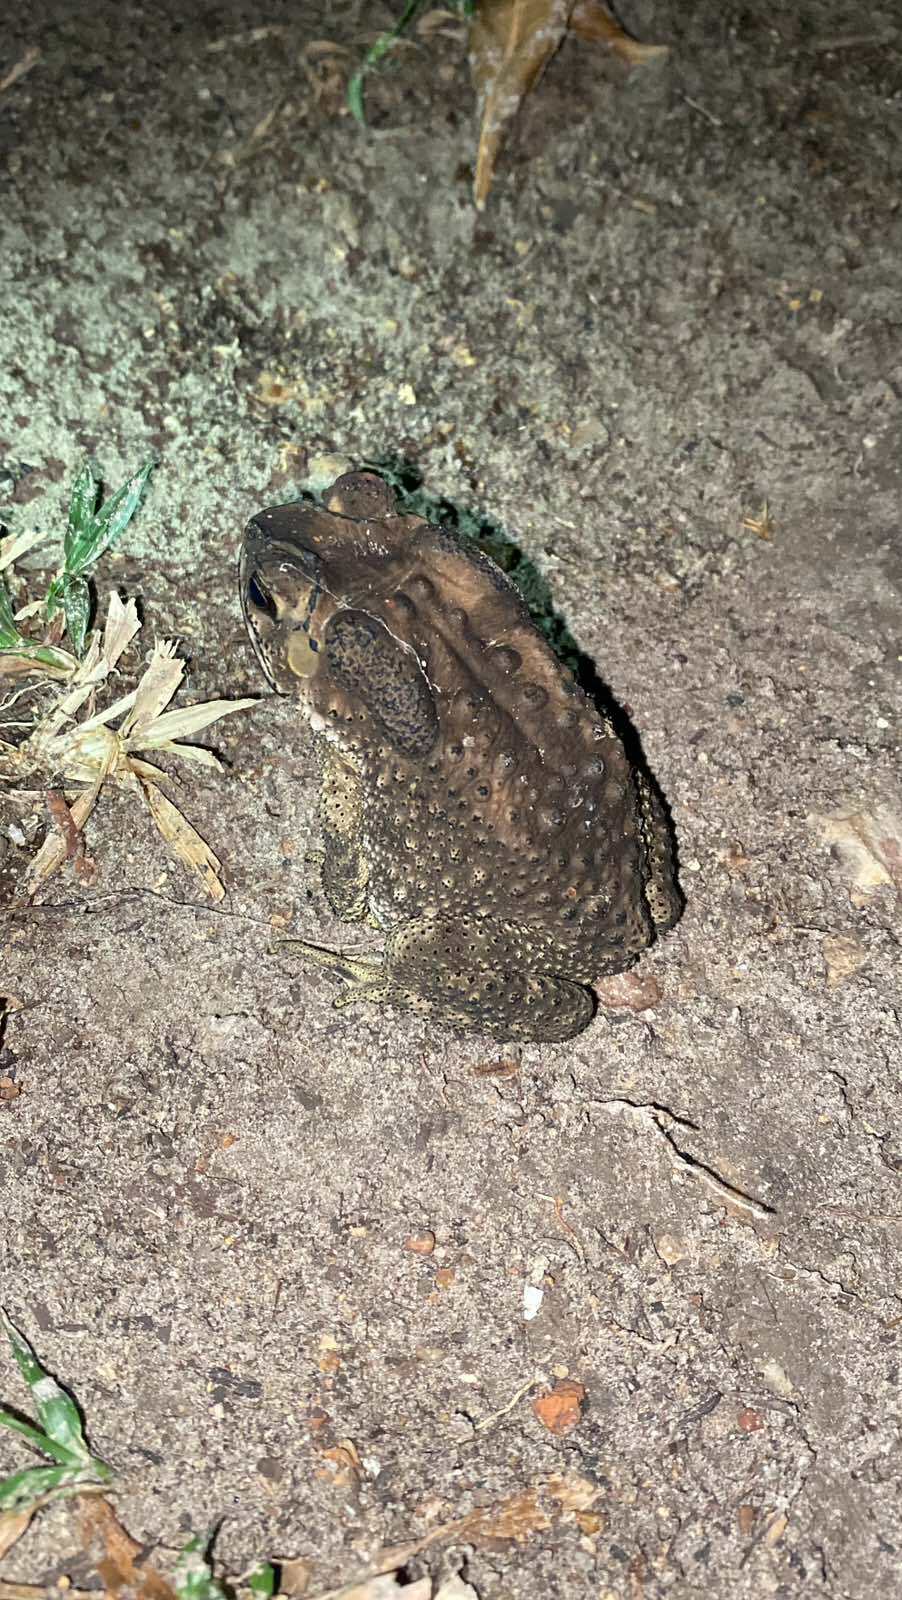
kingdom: Animalia
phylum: Chordata
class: Amphibia
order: Anura
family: Bufonidae
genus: Duttaphrynus
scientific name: Duttaphrynus melanostictus
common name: Common sunda toad
